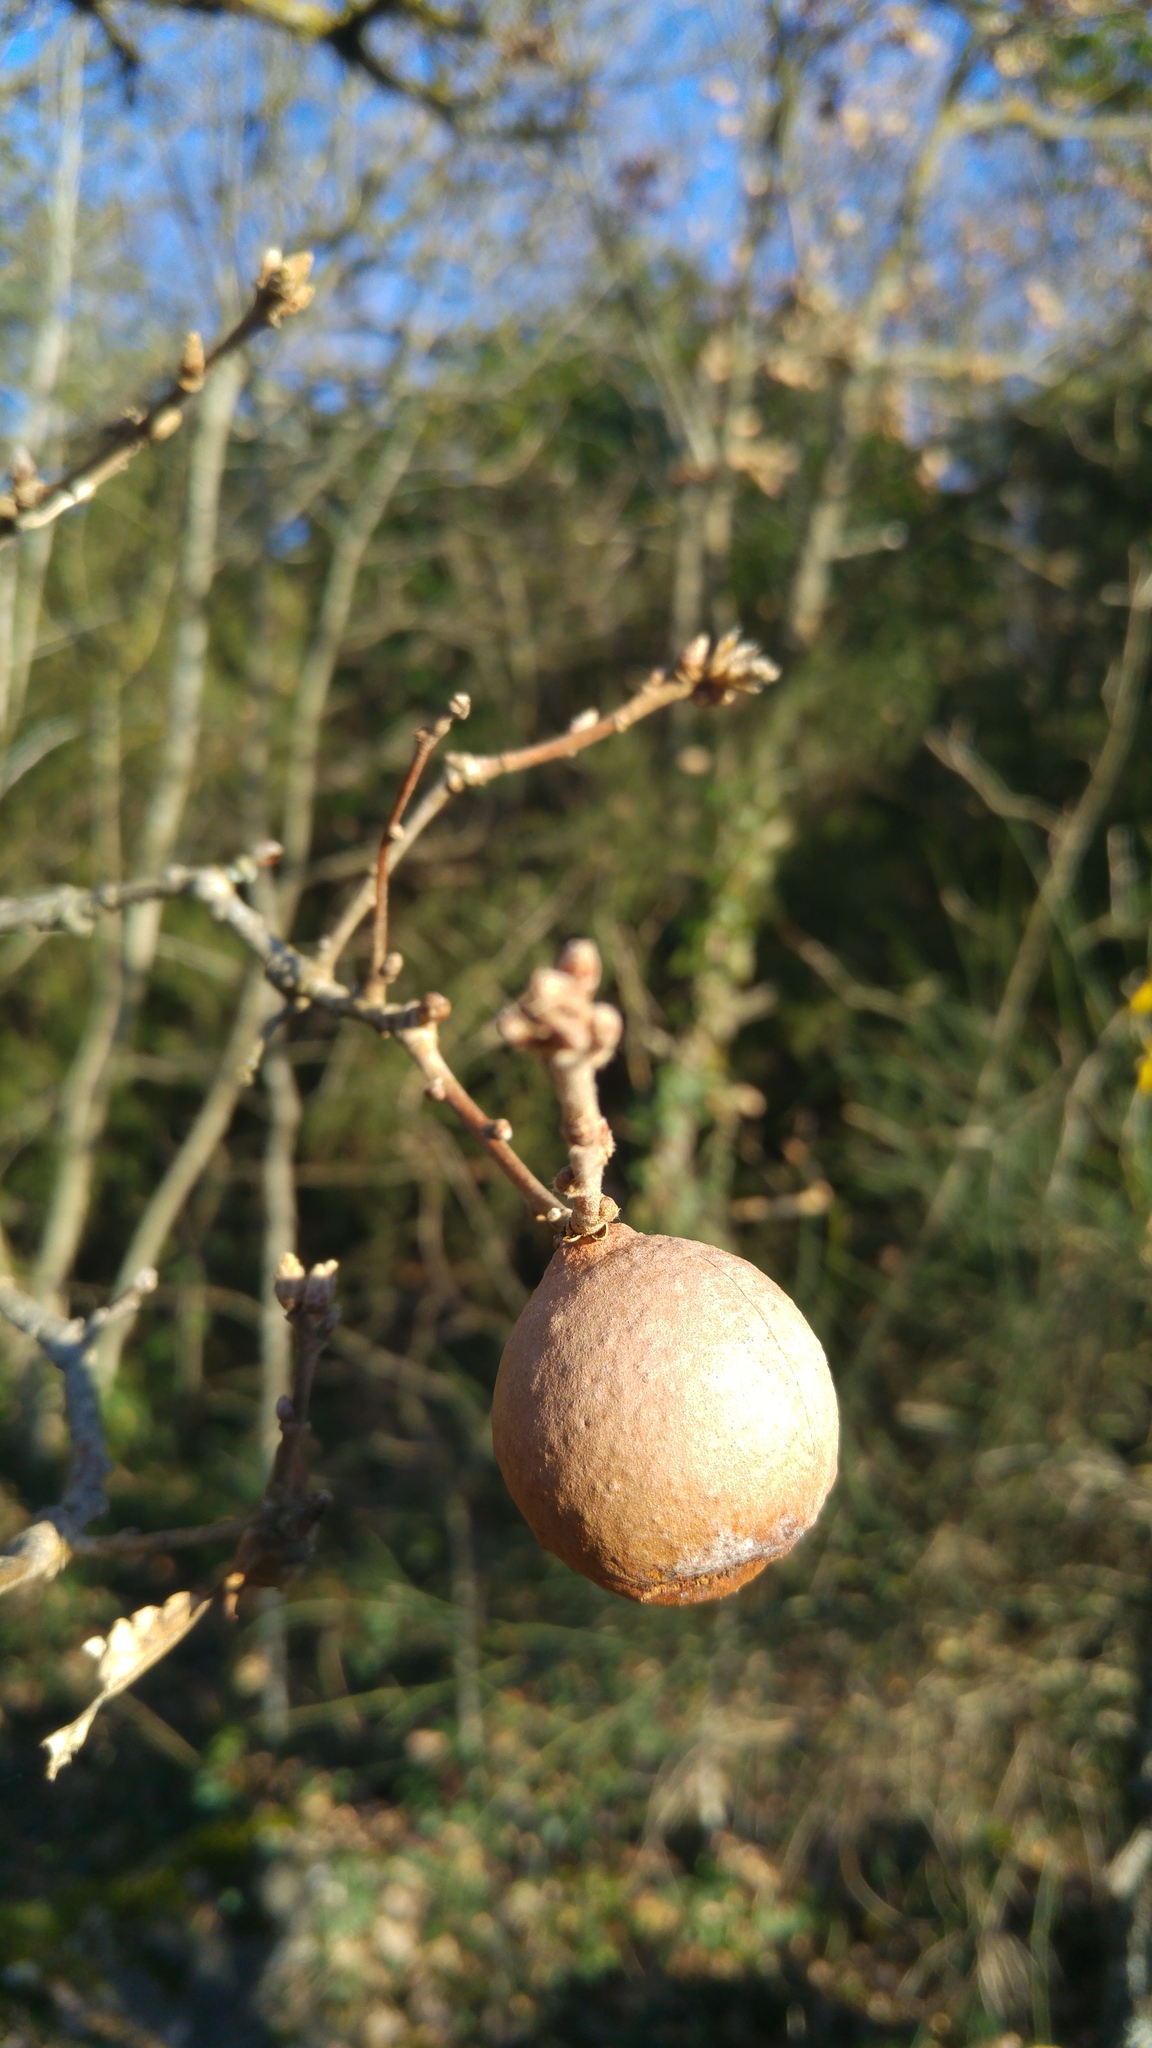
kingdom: Animalia
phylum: Arthropoda
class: Insecta
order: Hymenoptera
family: Cynipidae
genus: Andricus
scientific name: Andricus quercustozae
